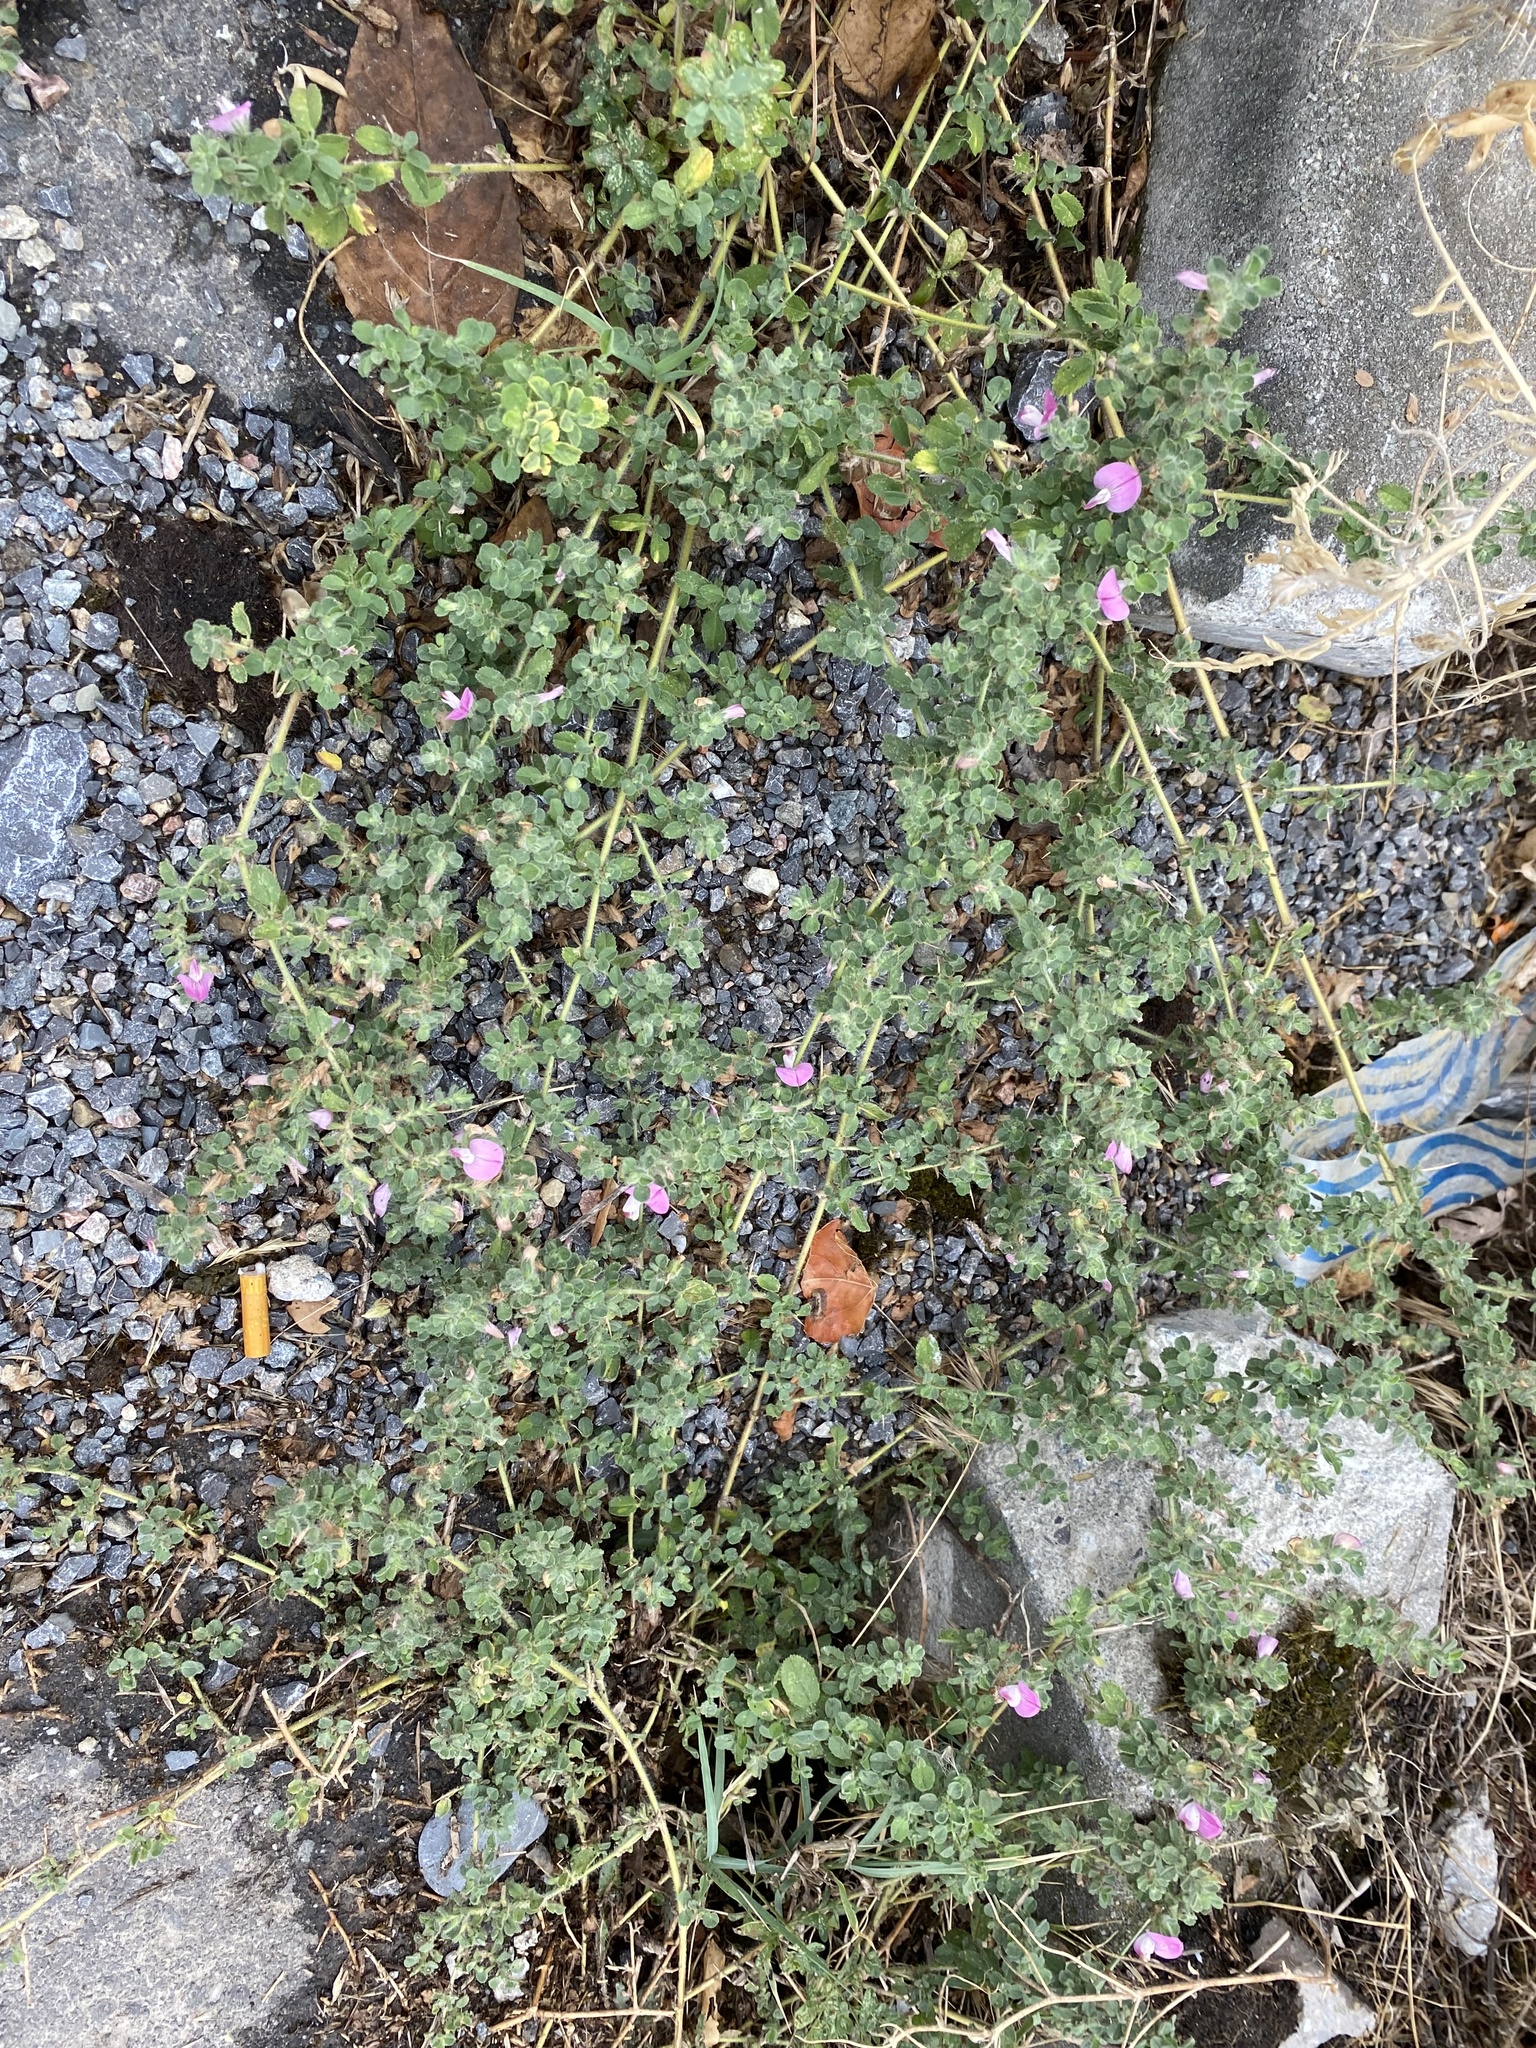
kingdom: Plantae
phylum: Tracheophyta
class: Magnoliopsida
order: Fabales
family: Fabaceae
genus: Ononis
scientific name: Ononis spinosa
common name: Spiny restharrow
